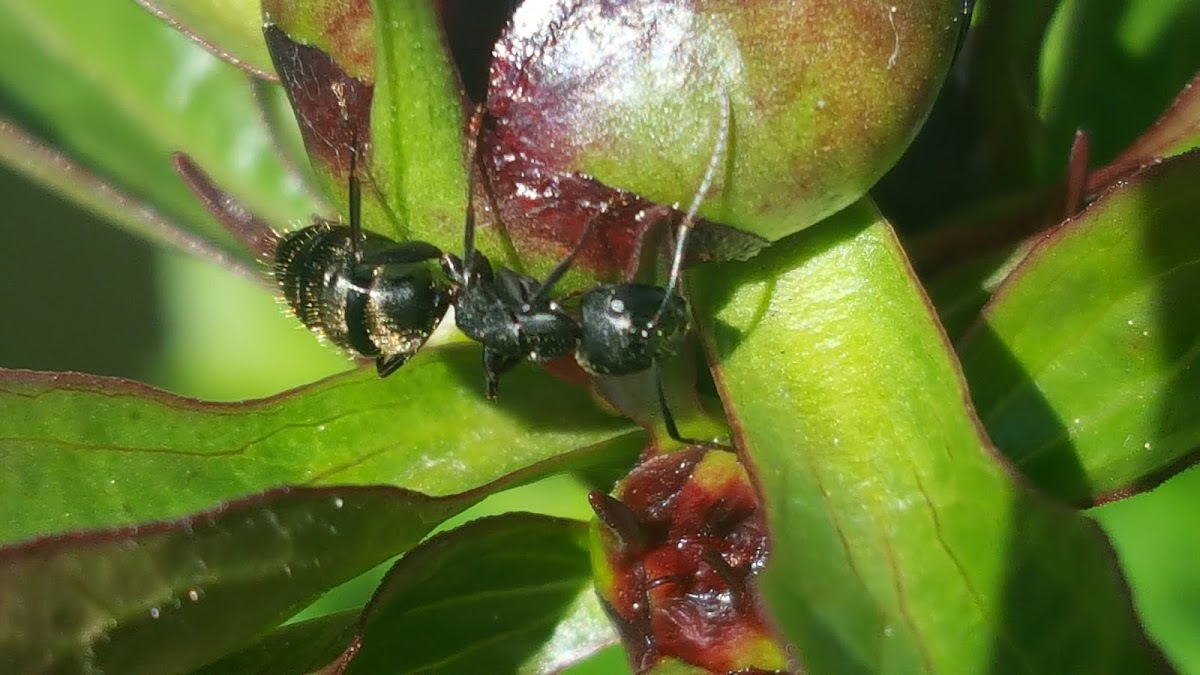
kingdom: Animalia
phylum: Arthropoda
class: Insecta
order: Hymenoptera
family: Formicidae
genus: Camponotus
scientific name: Camponotus pennsylvanicus
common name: Black carpenter ant
